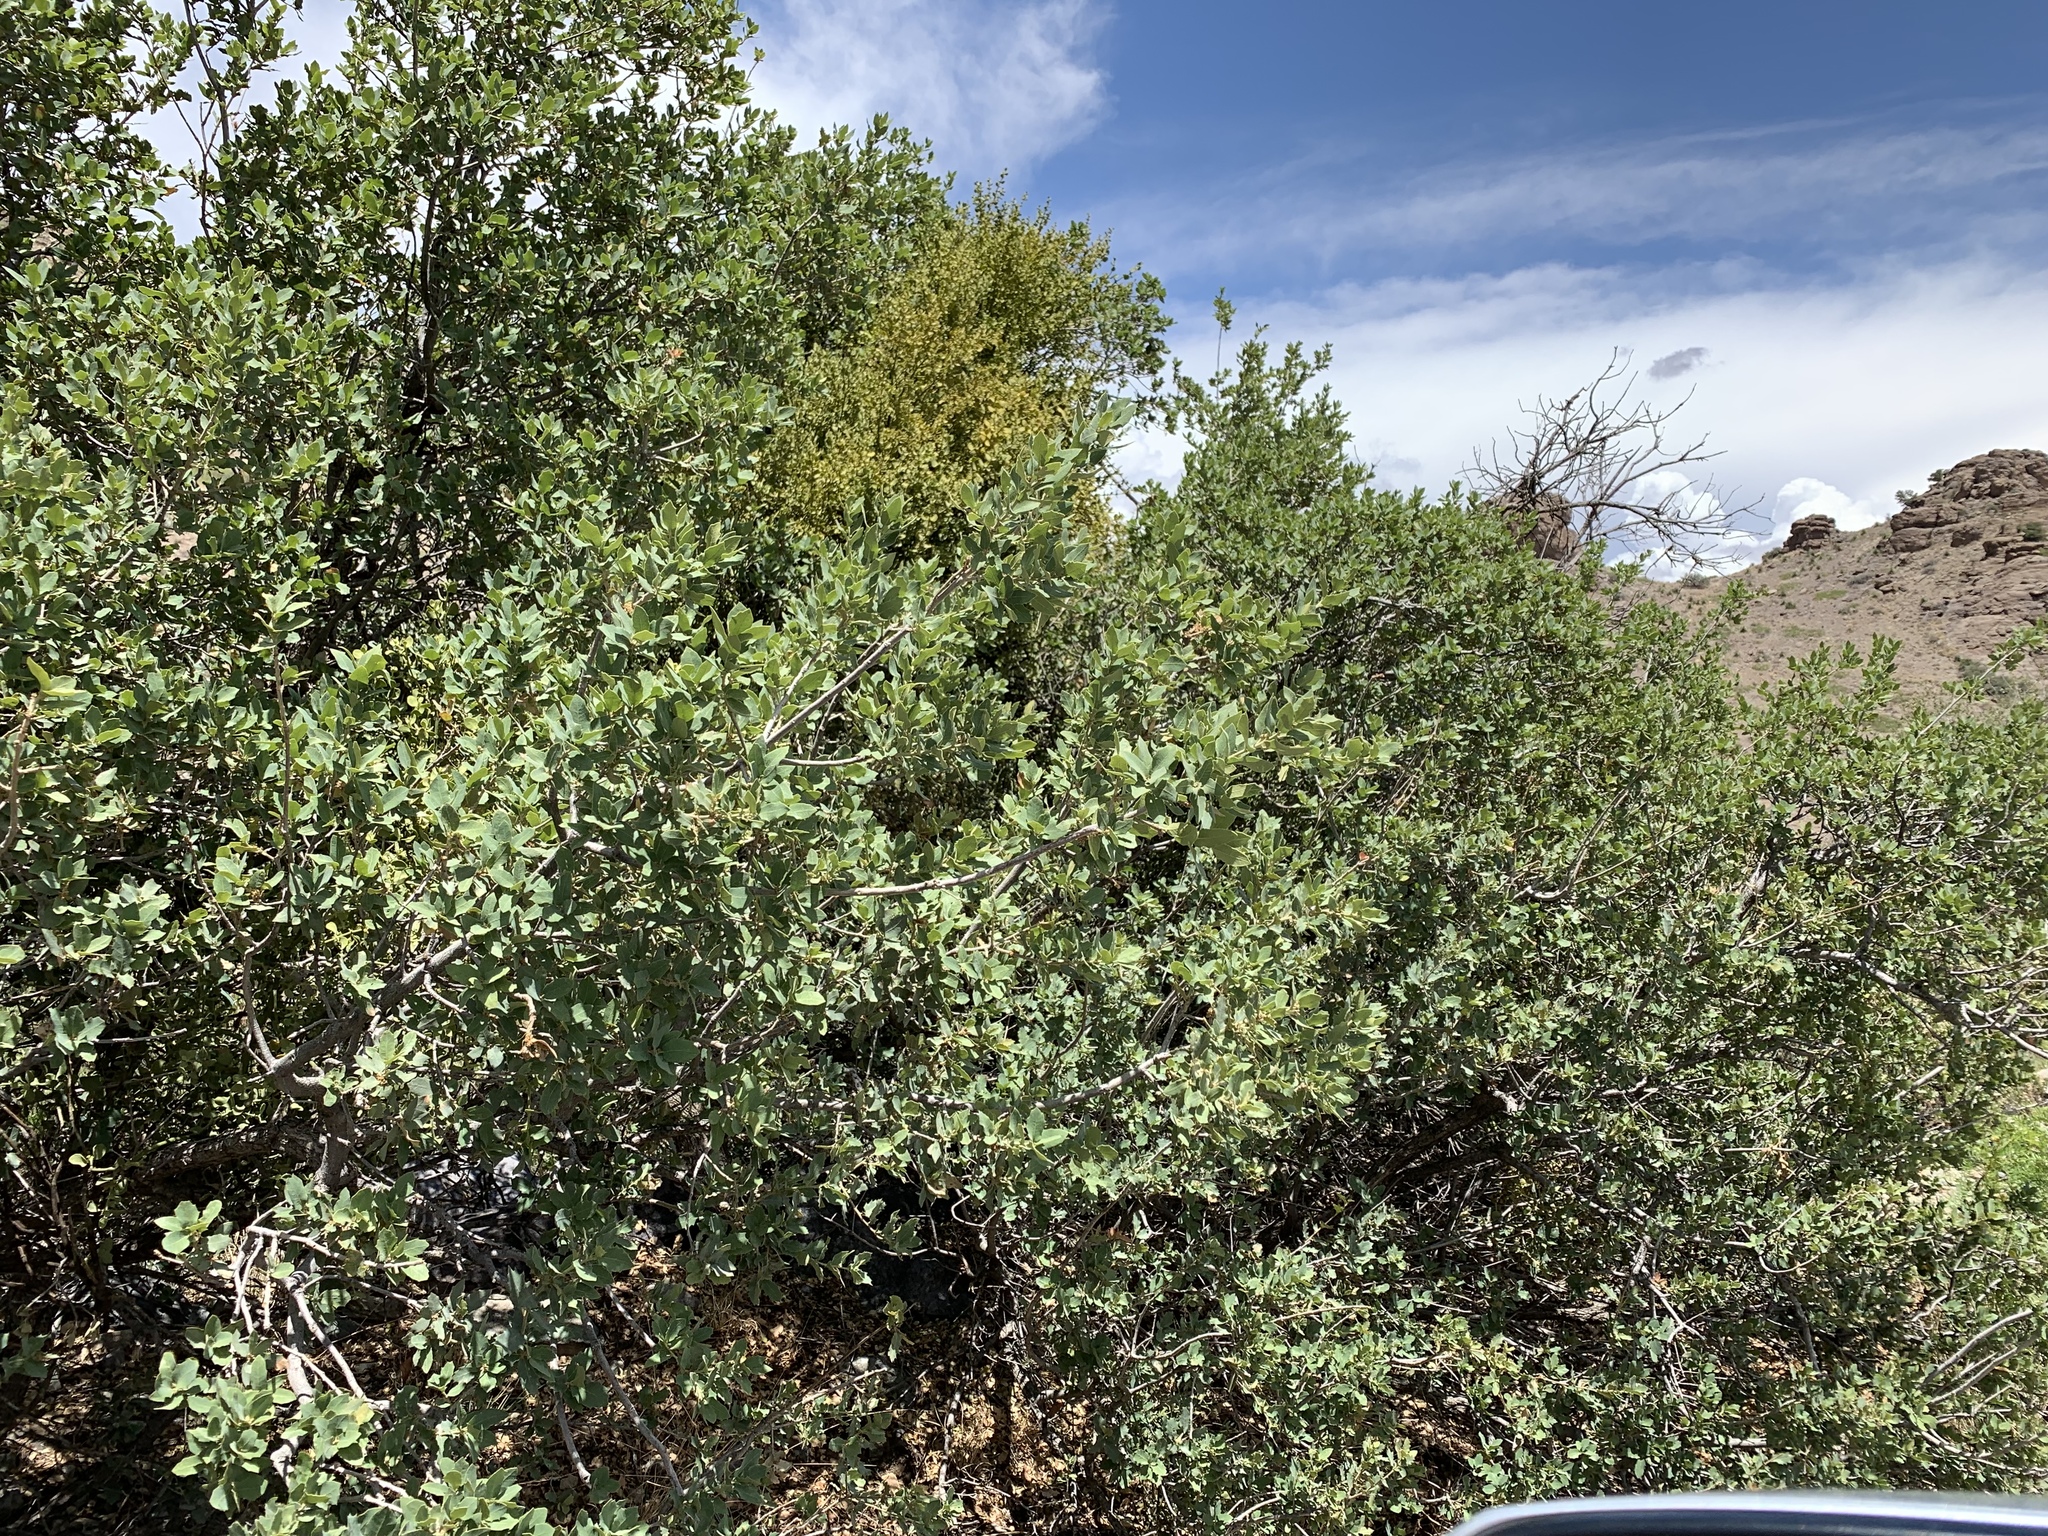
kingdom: Plantae
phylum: Tracheophyta
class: Magnoliopsida
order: Fagales
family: Fagaceae
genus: Quercus
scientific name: Quercus turbinella
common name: Sonoran scrub oak
